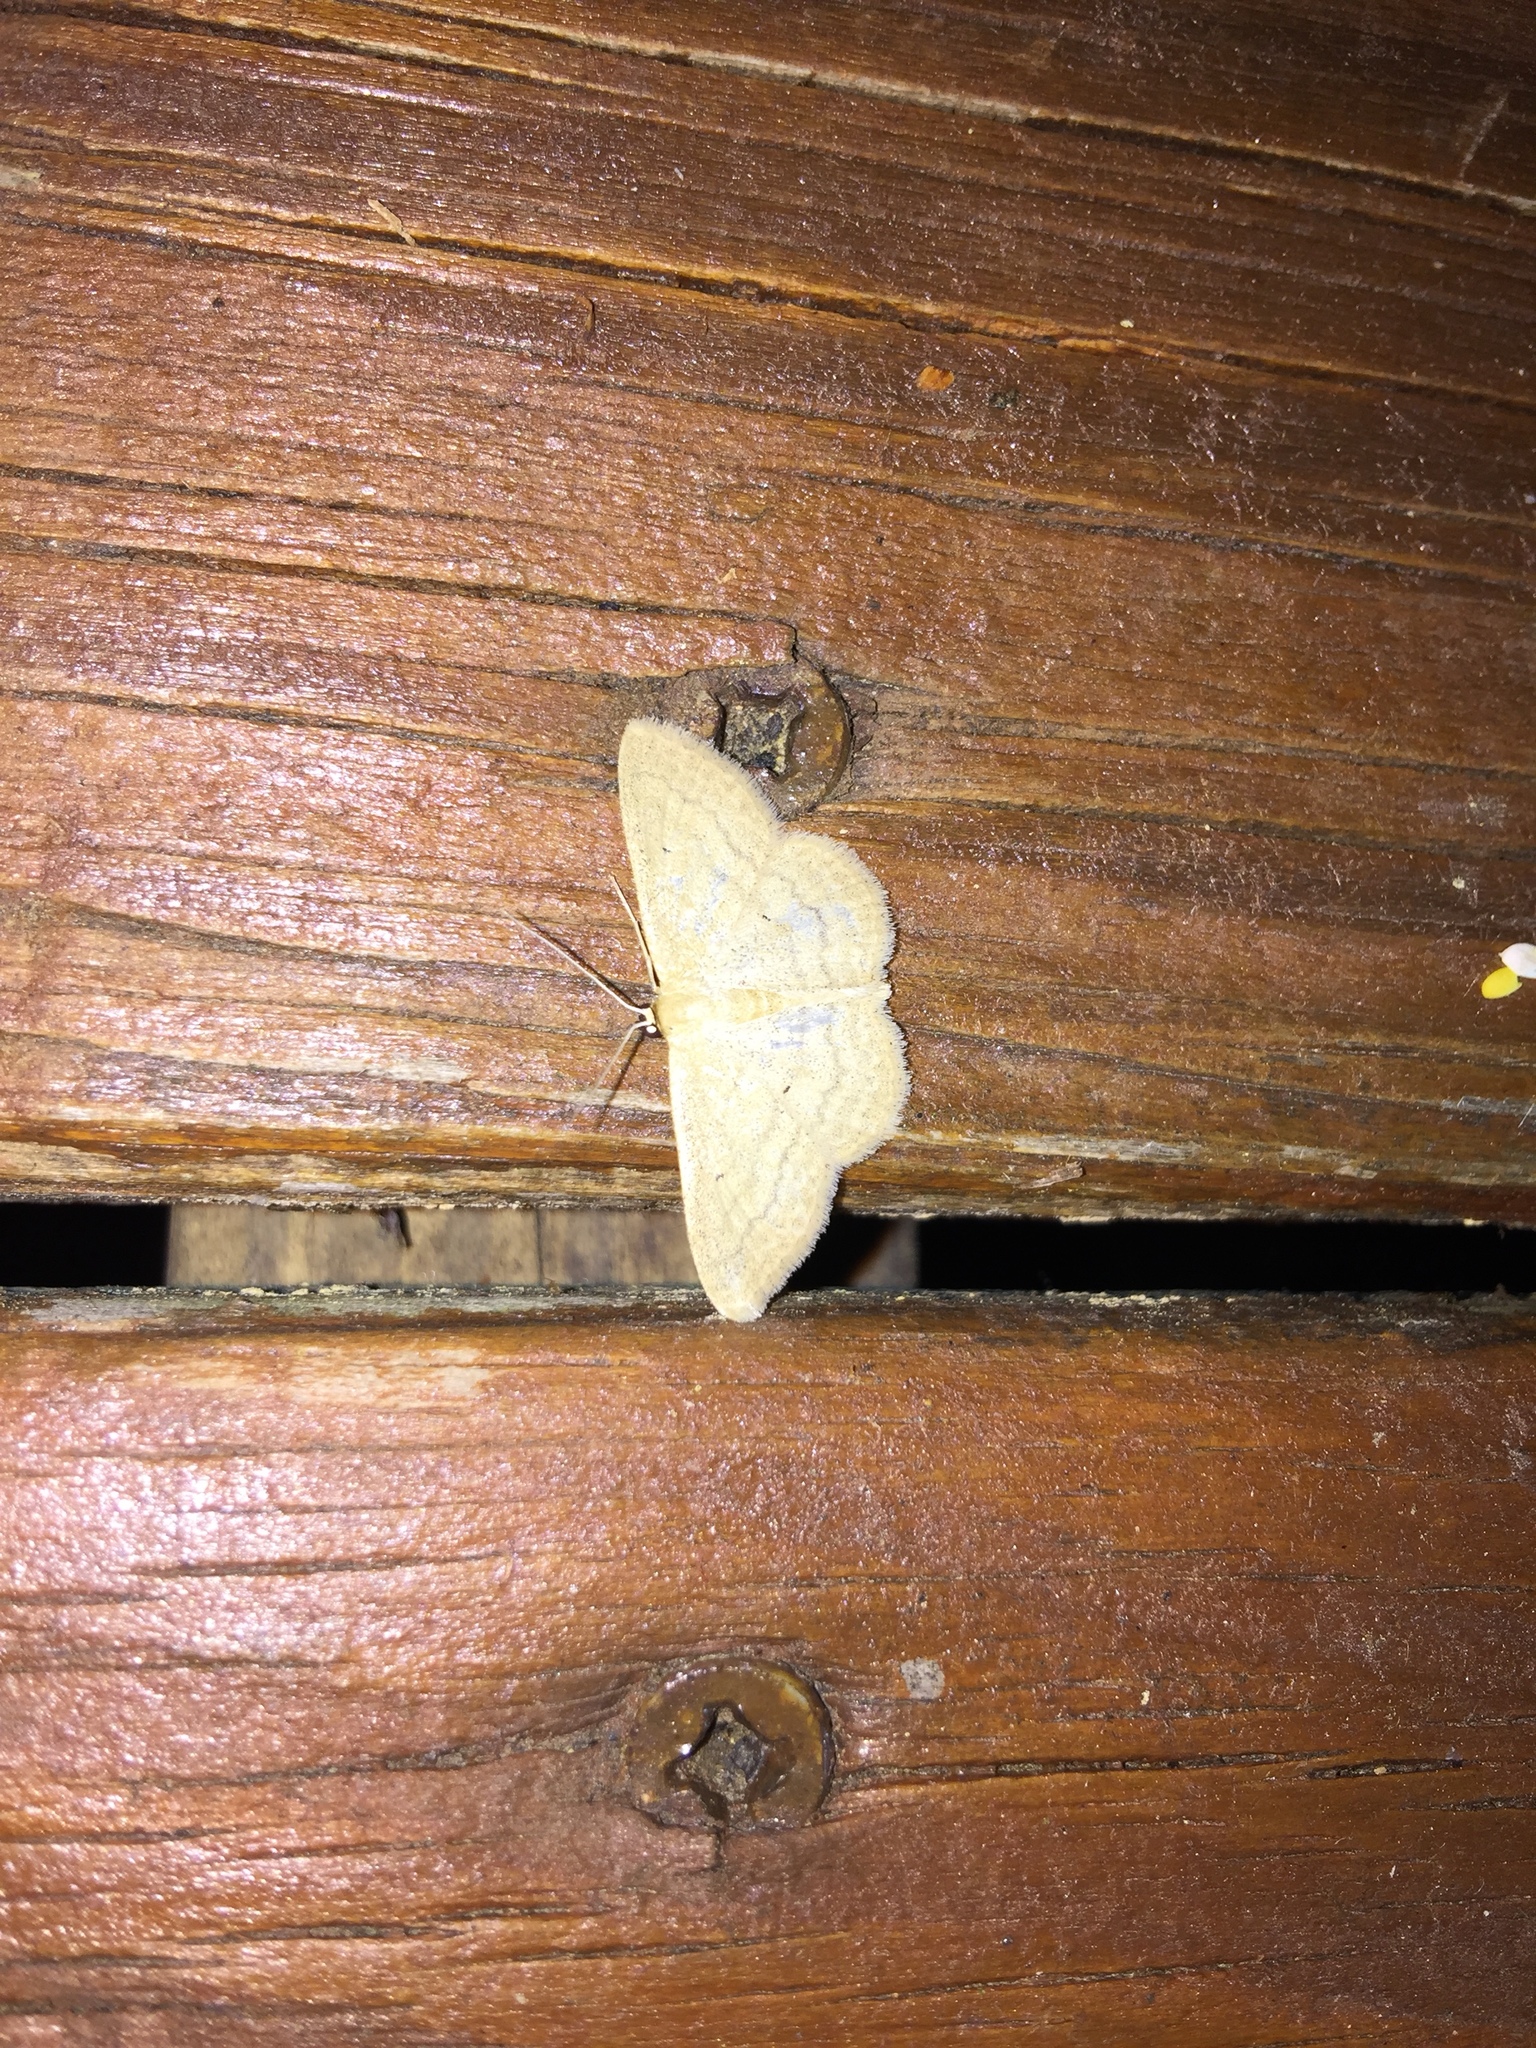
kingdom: Animalia
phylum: Arthropoda
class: Insecta
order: Lepidoptera
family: Geometridae
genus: Scopula
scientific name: Scopula inductata
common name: Soft-lined wave
